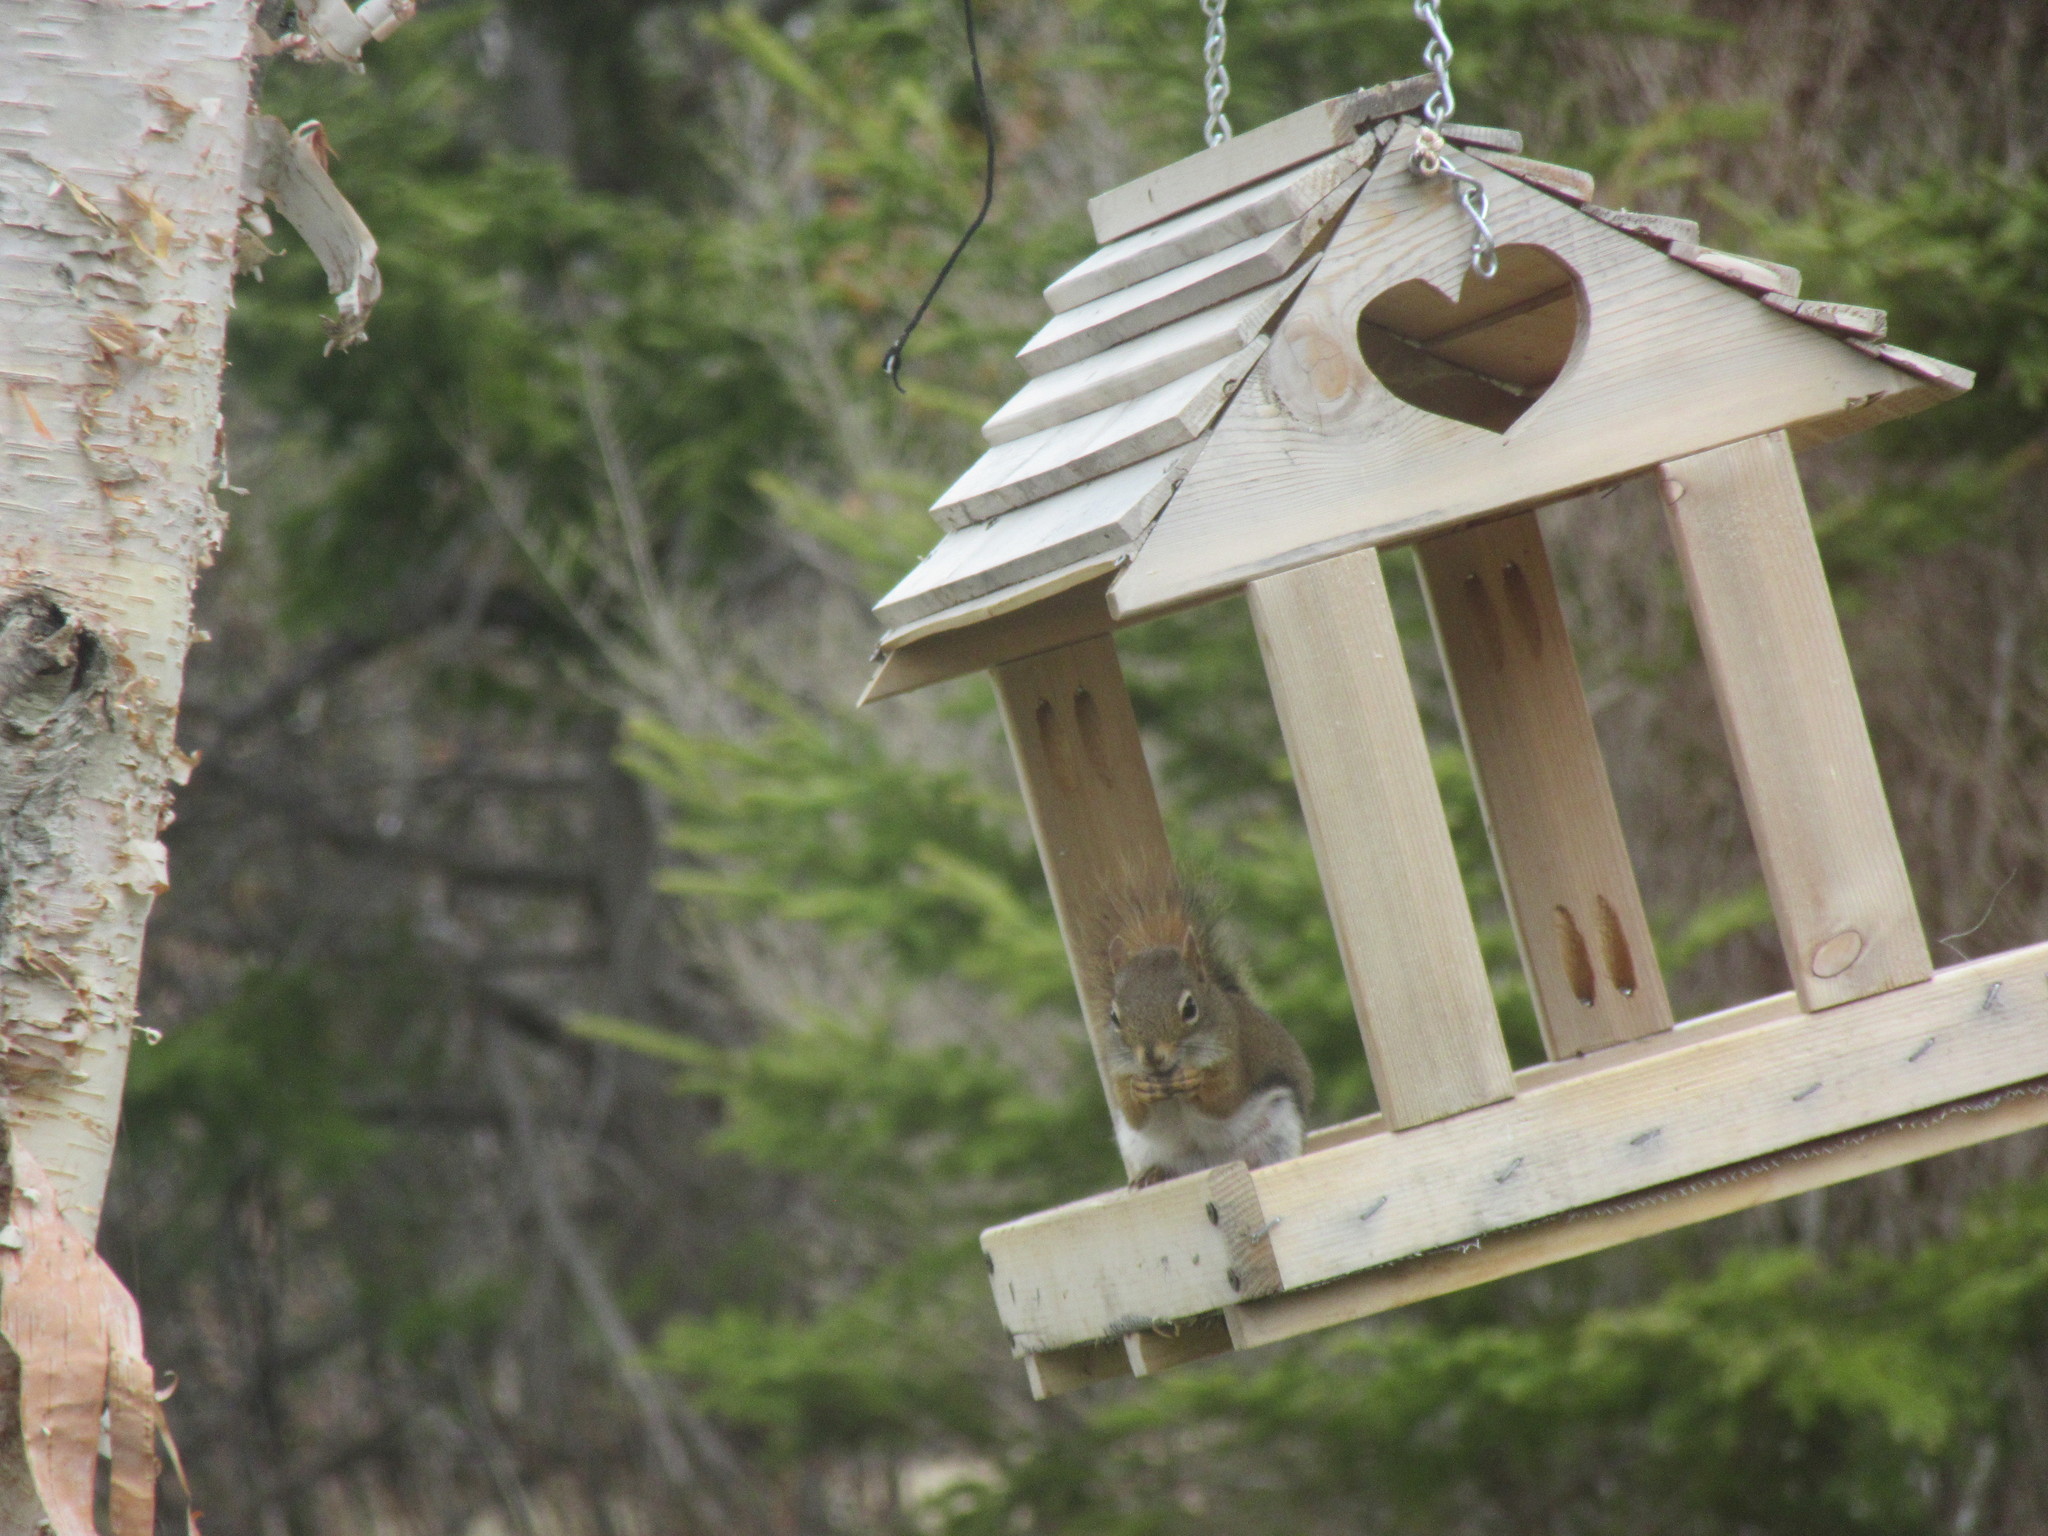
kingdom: Animalia
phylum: Chordata
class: Mammalia
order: Rodentia
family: Sciuridae
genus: Tamiasciurus
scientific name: Tamiasciurus hudsonicus
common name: Red squirrel
